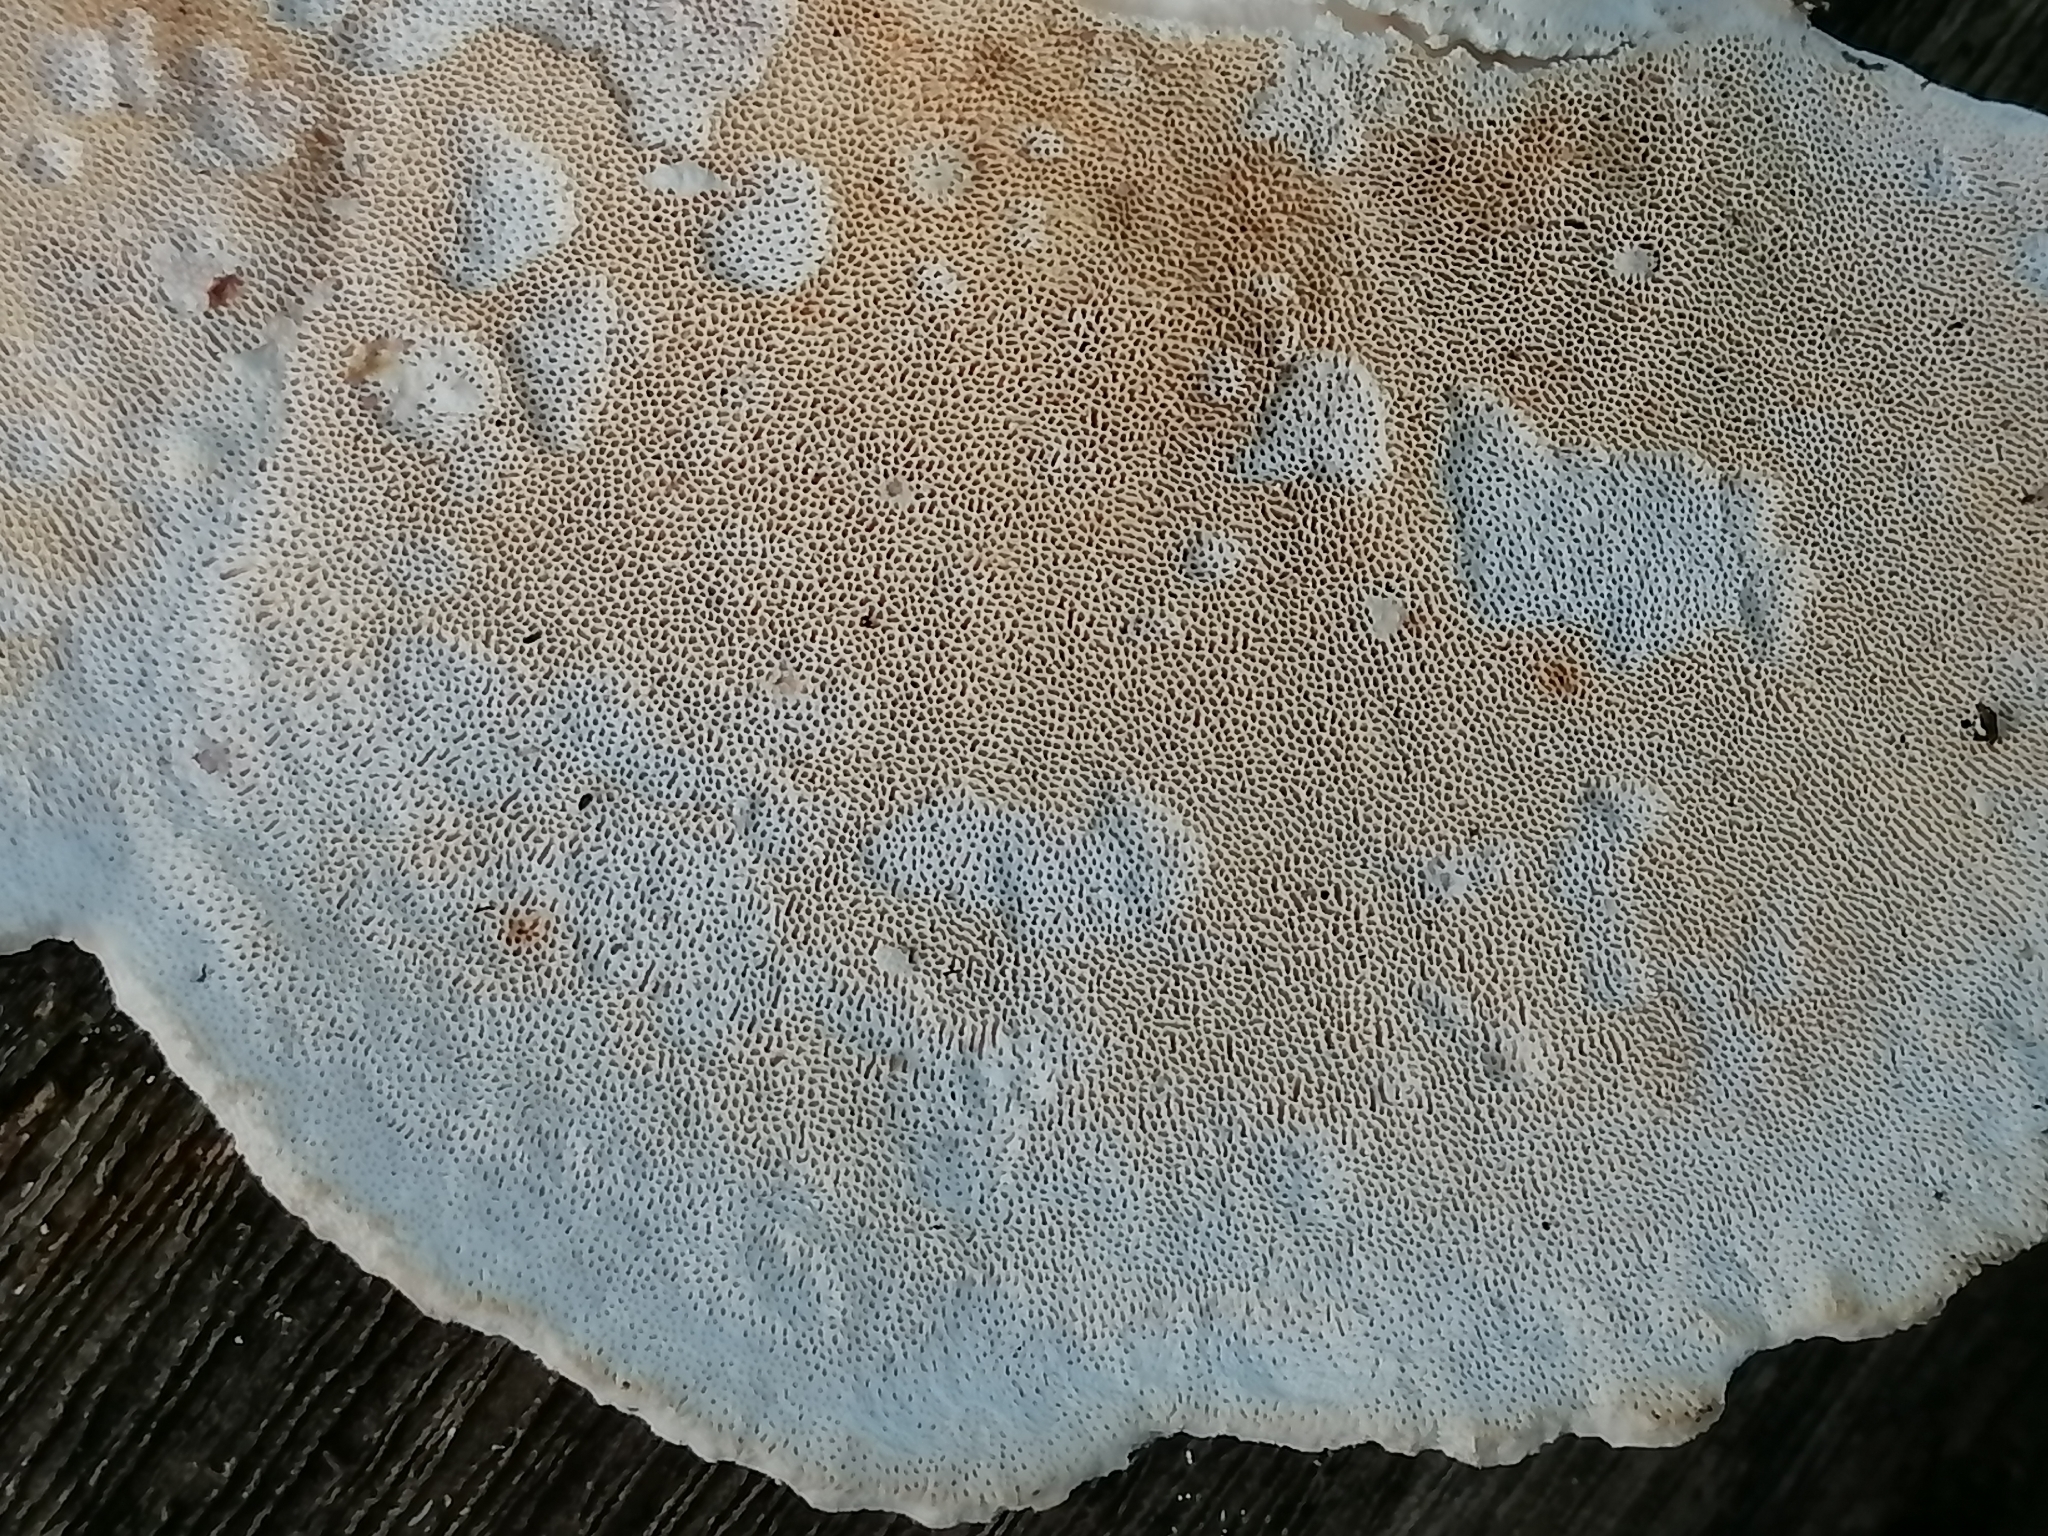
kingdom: Fungi
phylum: Basidiomycota
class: Agaricomycetes
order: Polyporales
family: Polyporaceae
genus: Trametes
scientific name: Trametes elegans
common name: White maze polypore
